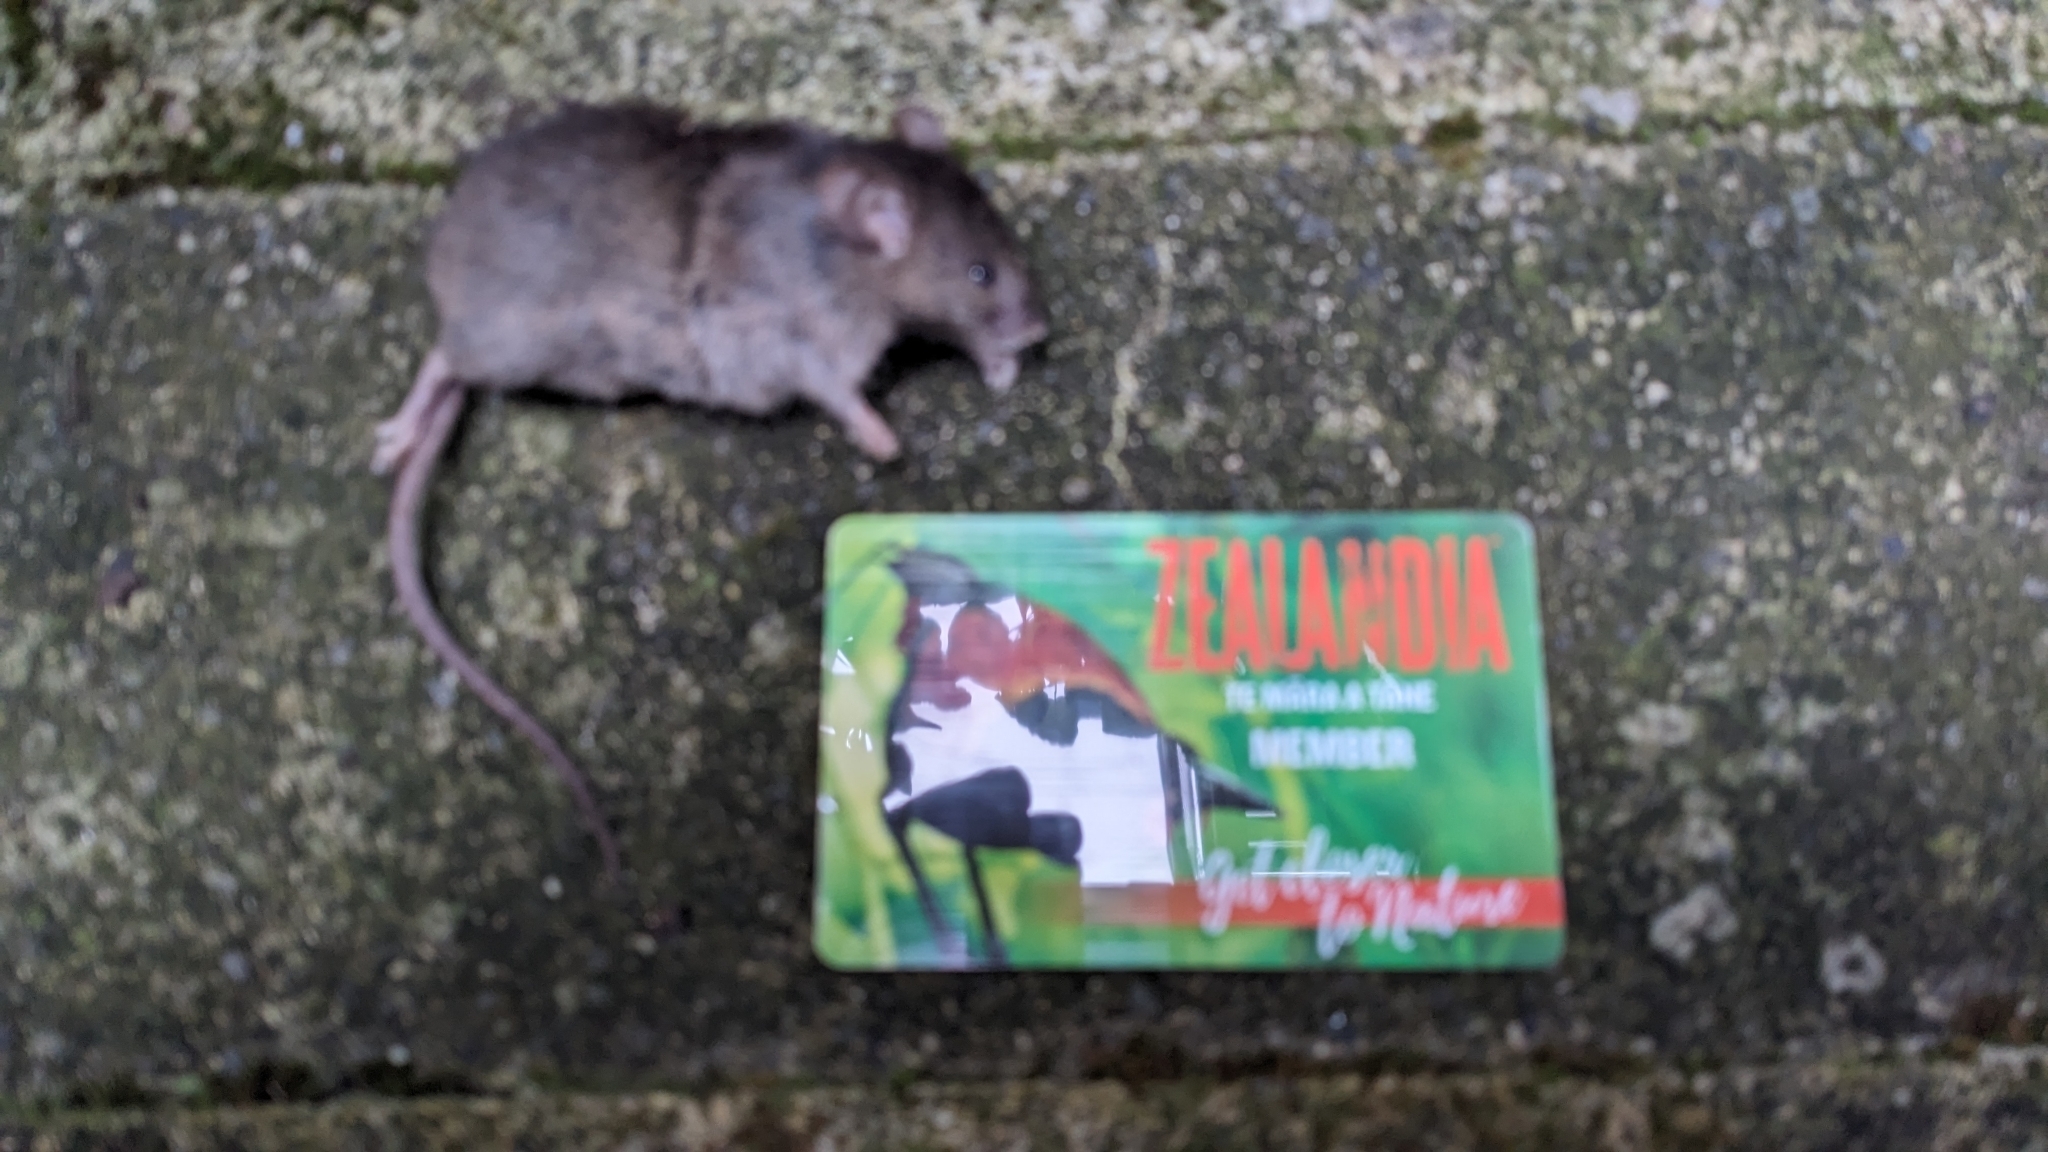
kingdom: Animalia
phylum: Chordata
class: Mammalia
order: Rodentia
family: Muridae
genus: Mus
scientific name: Mus musculus
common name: House mouse
